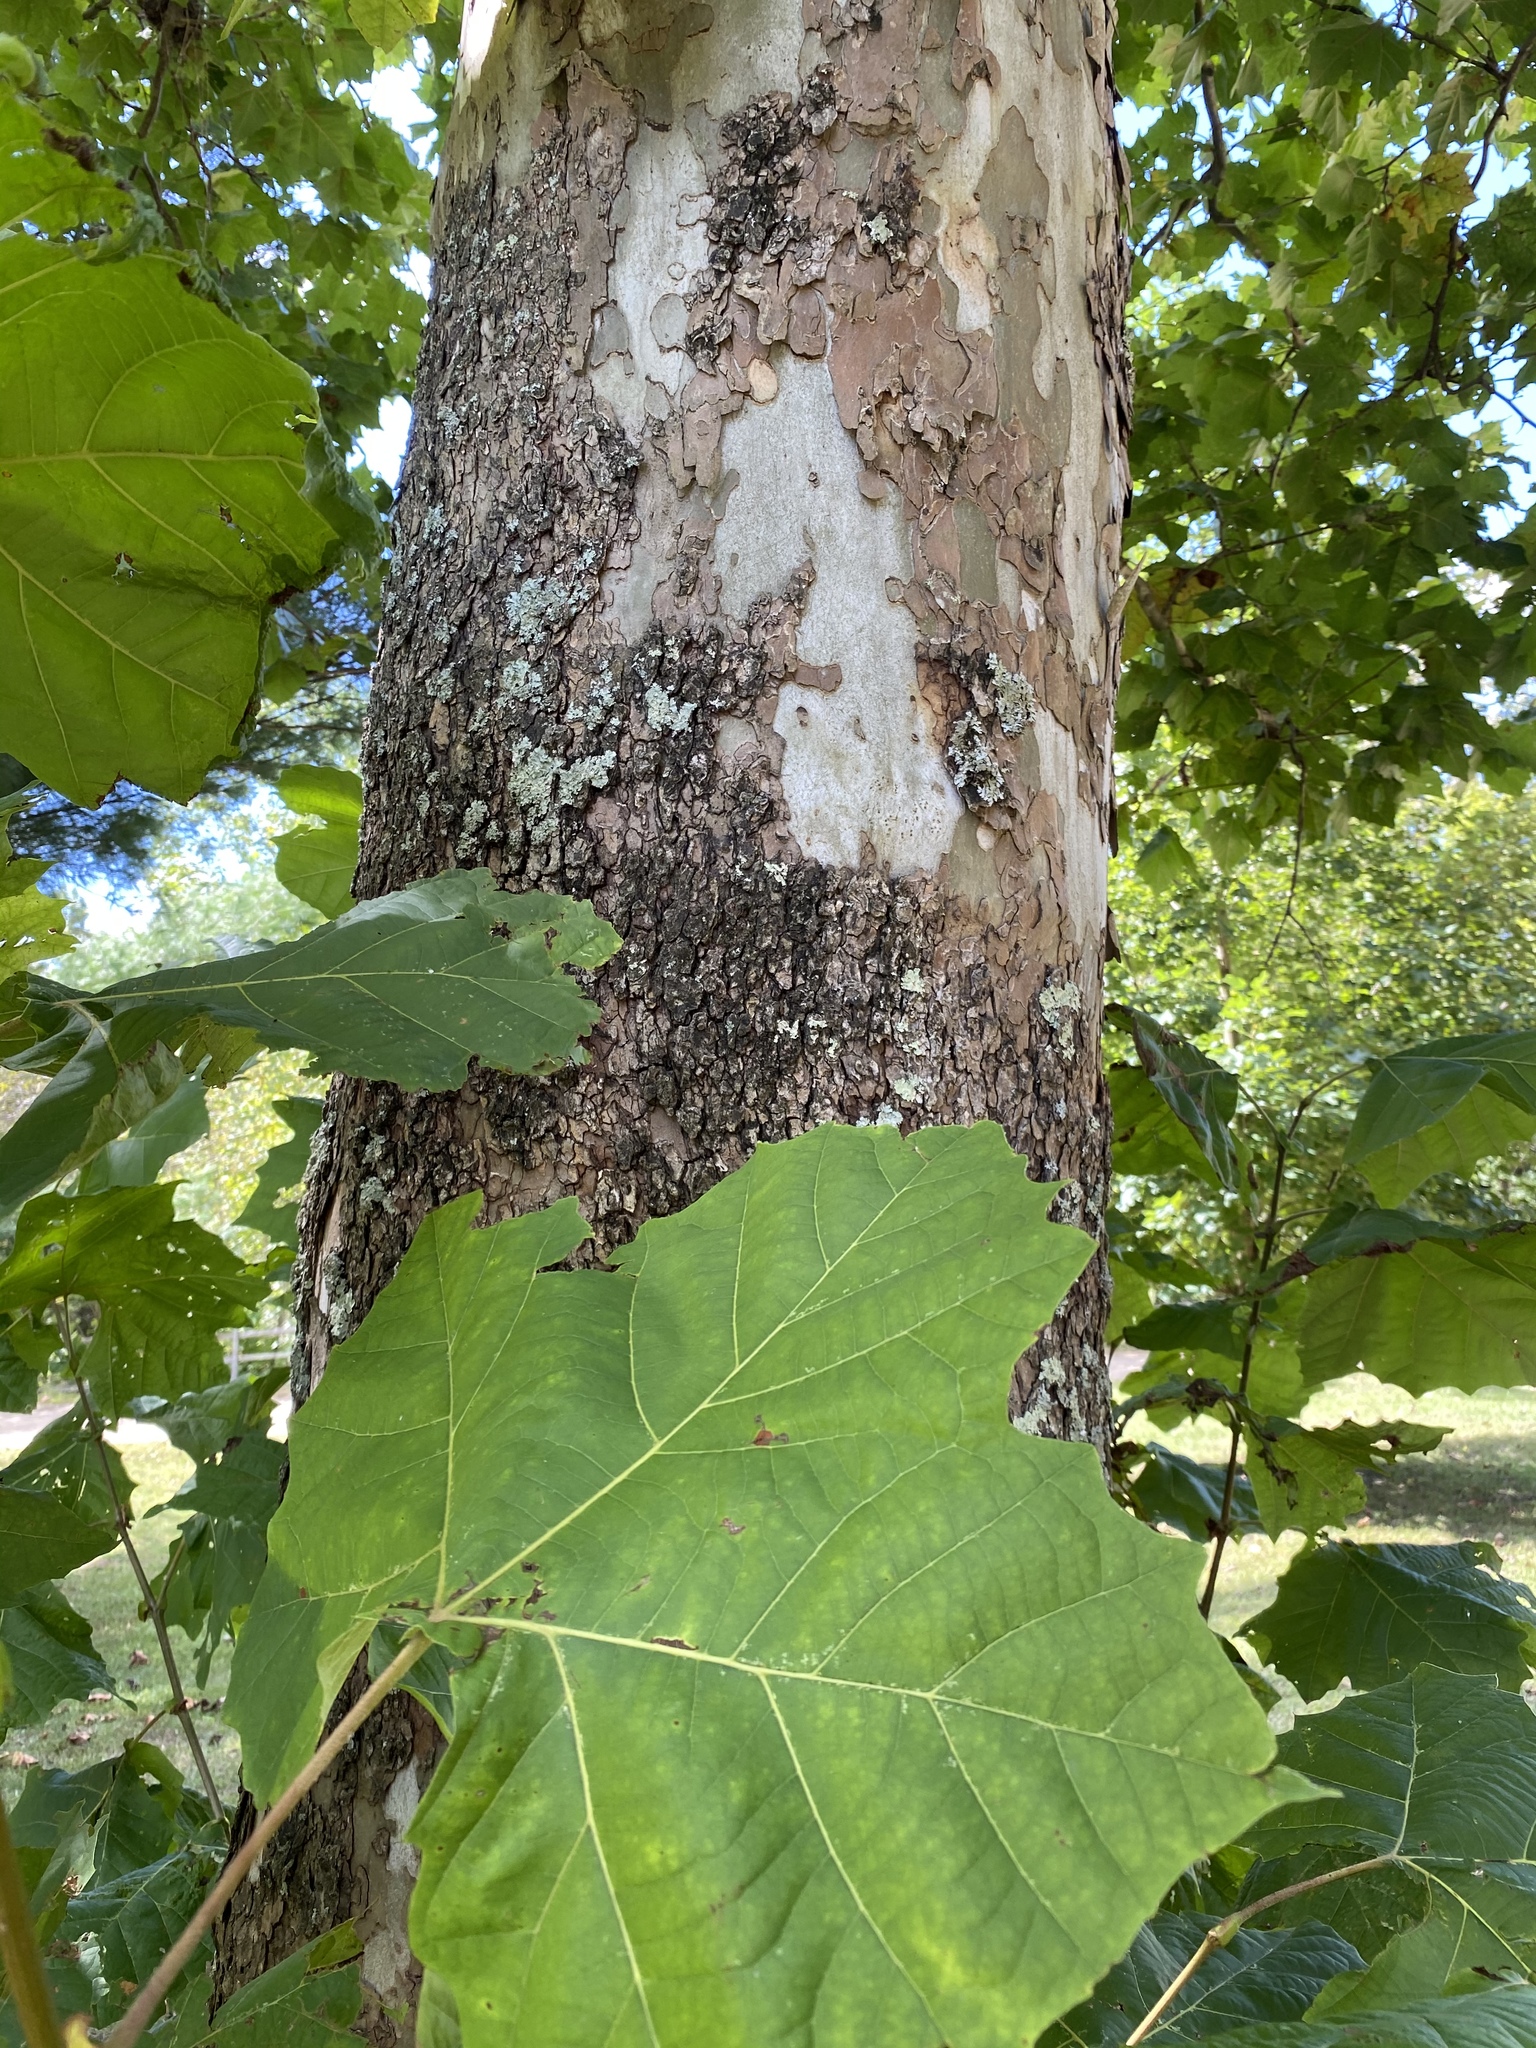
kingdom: Plantae
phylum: Tracheophyta
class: Magnoliopsida
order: Proteales
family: Platanaceae
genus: Platanus
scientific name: Platanus occidentalis
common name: American sycamore
